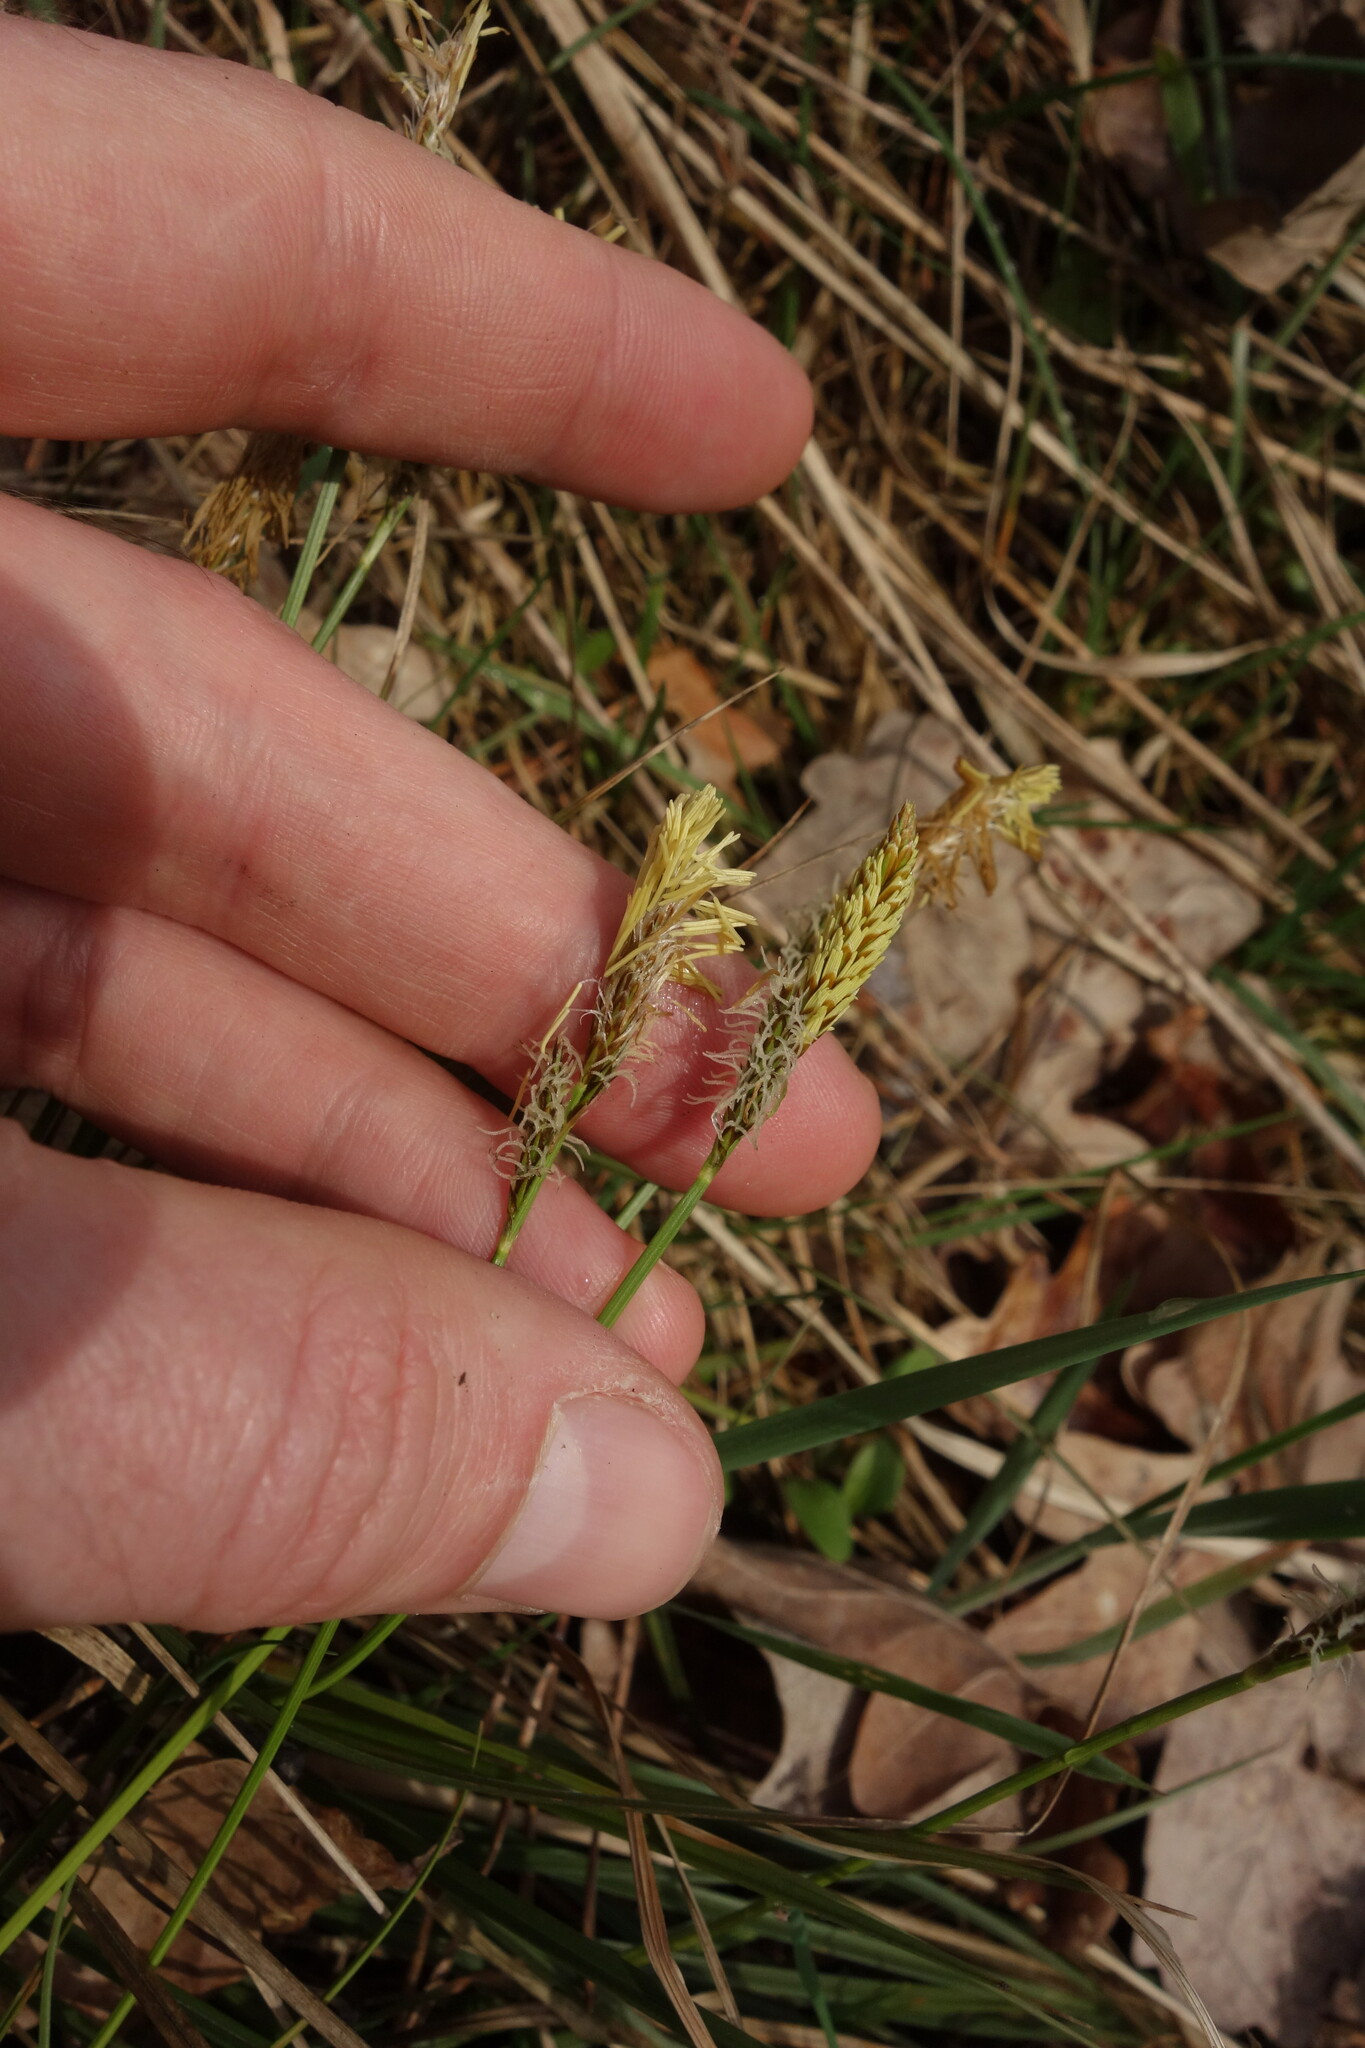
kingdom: Plantae
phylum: Tracheophyta
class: Liliopsida
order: Poales
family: Cyperaceae
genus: Carex
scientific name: Carex ericetorum
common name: Rare spring-sedge
